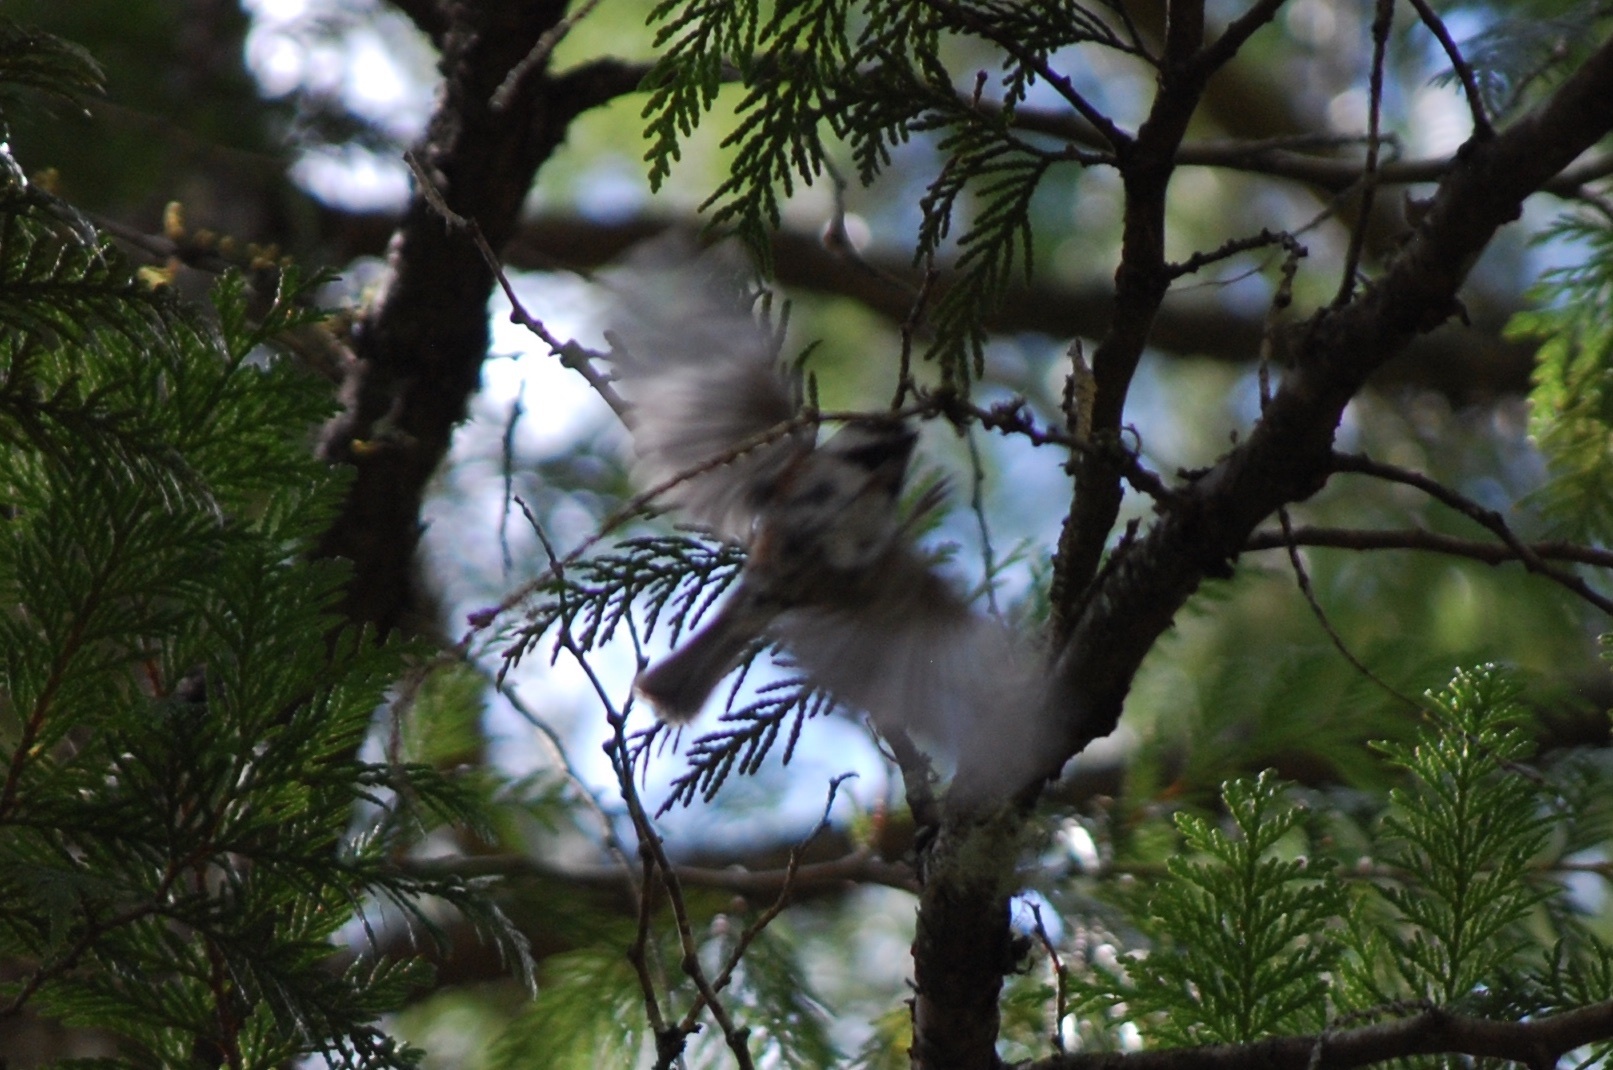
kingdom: Animalia
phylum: Chordata
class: Aves
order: Passeriformes
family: Paridae
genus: Poecile
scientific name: Poecile rufescens
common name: Chestnut-backed chickadee
